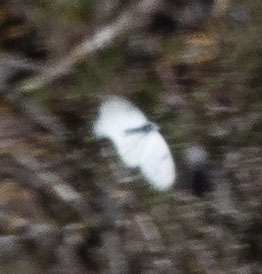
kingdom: Animalia
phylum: Arthropoda
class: Insecta
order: Lepidoptera
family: Pieridae
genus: Pontia
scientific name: Pontia sisymbrii
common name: California white
